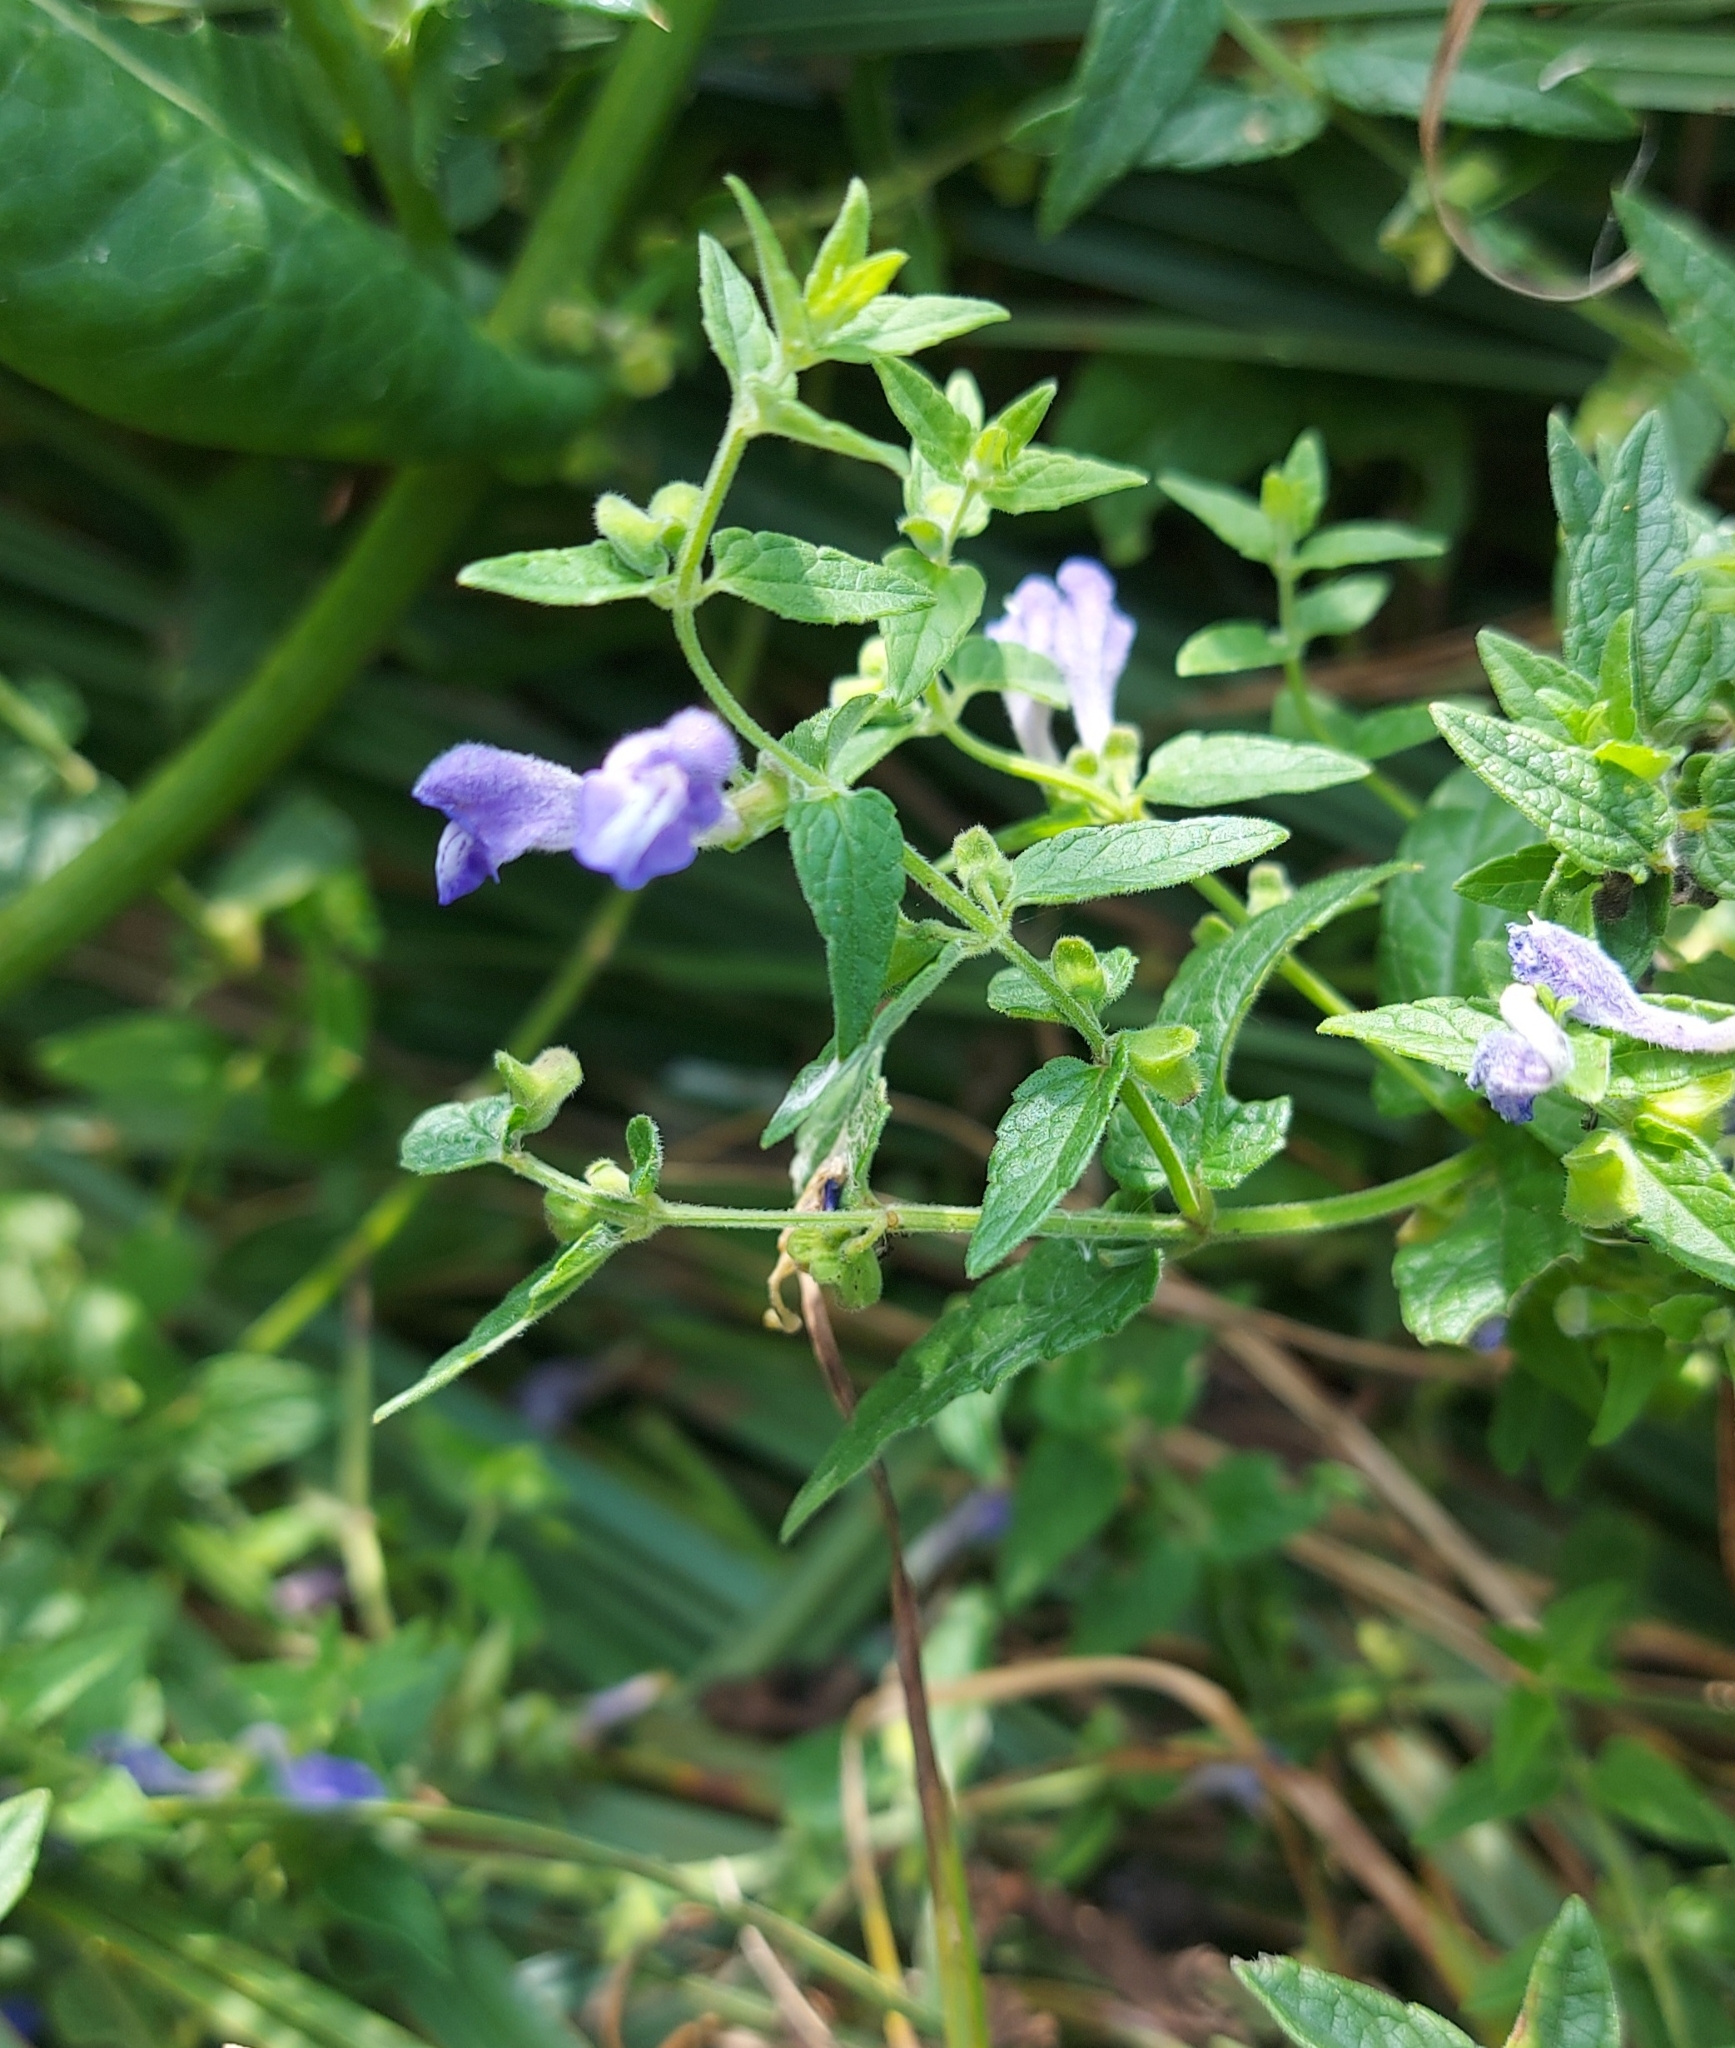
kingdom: Plantae
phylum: Tracheophyta
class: Magnoliopsida
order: Lamiales
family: Lamiaceae
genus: Scutellaria
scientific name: Scutellaria galericulata
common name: Skullcap
